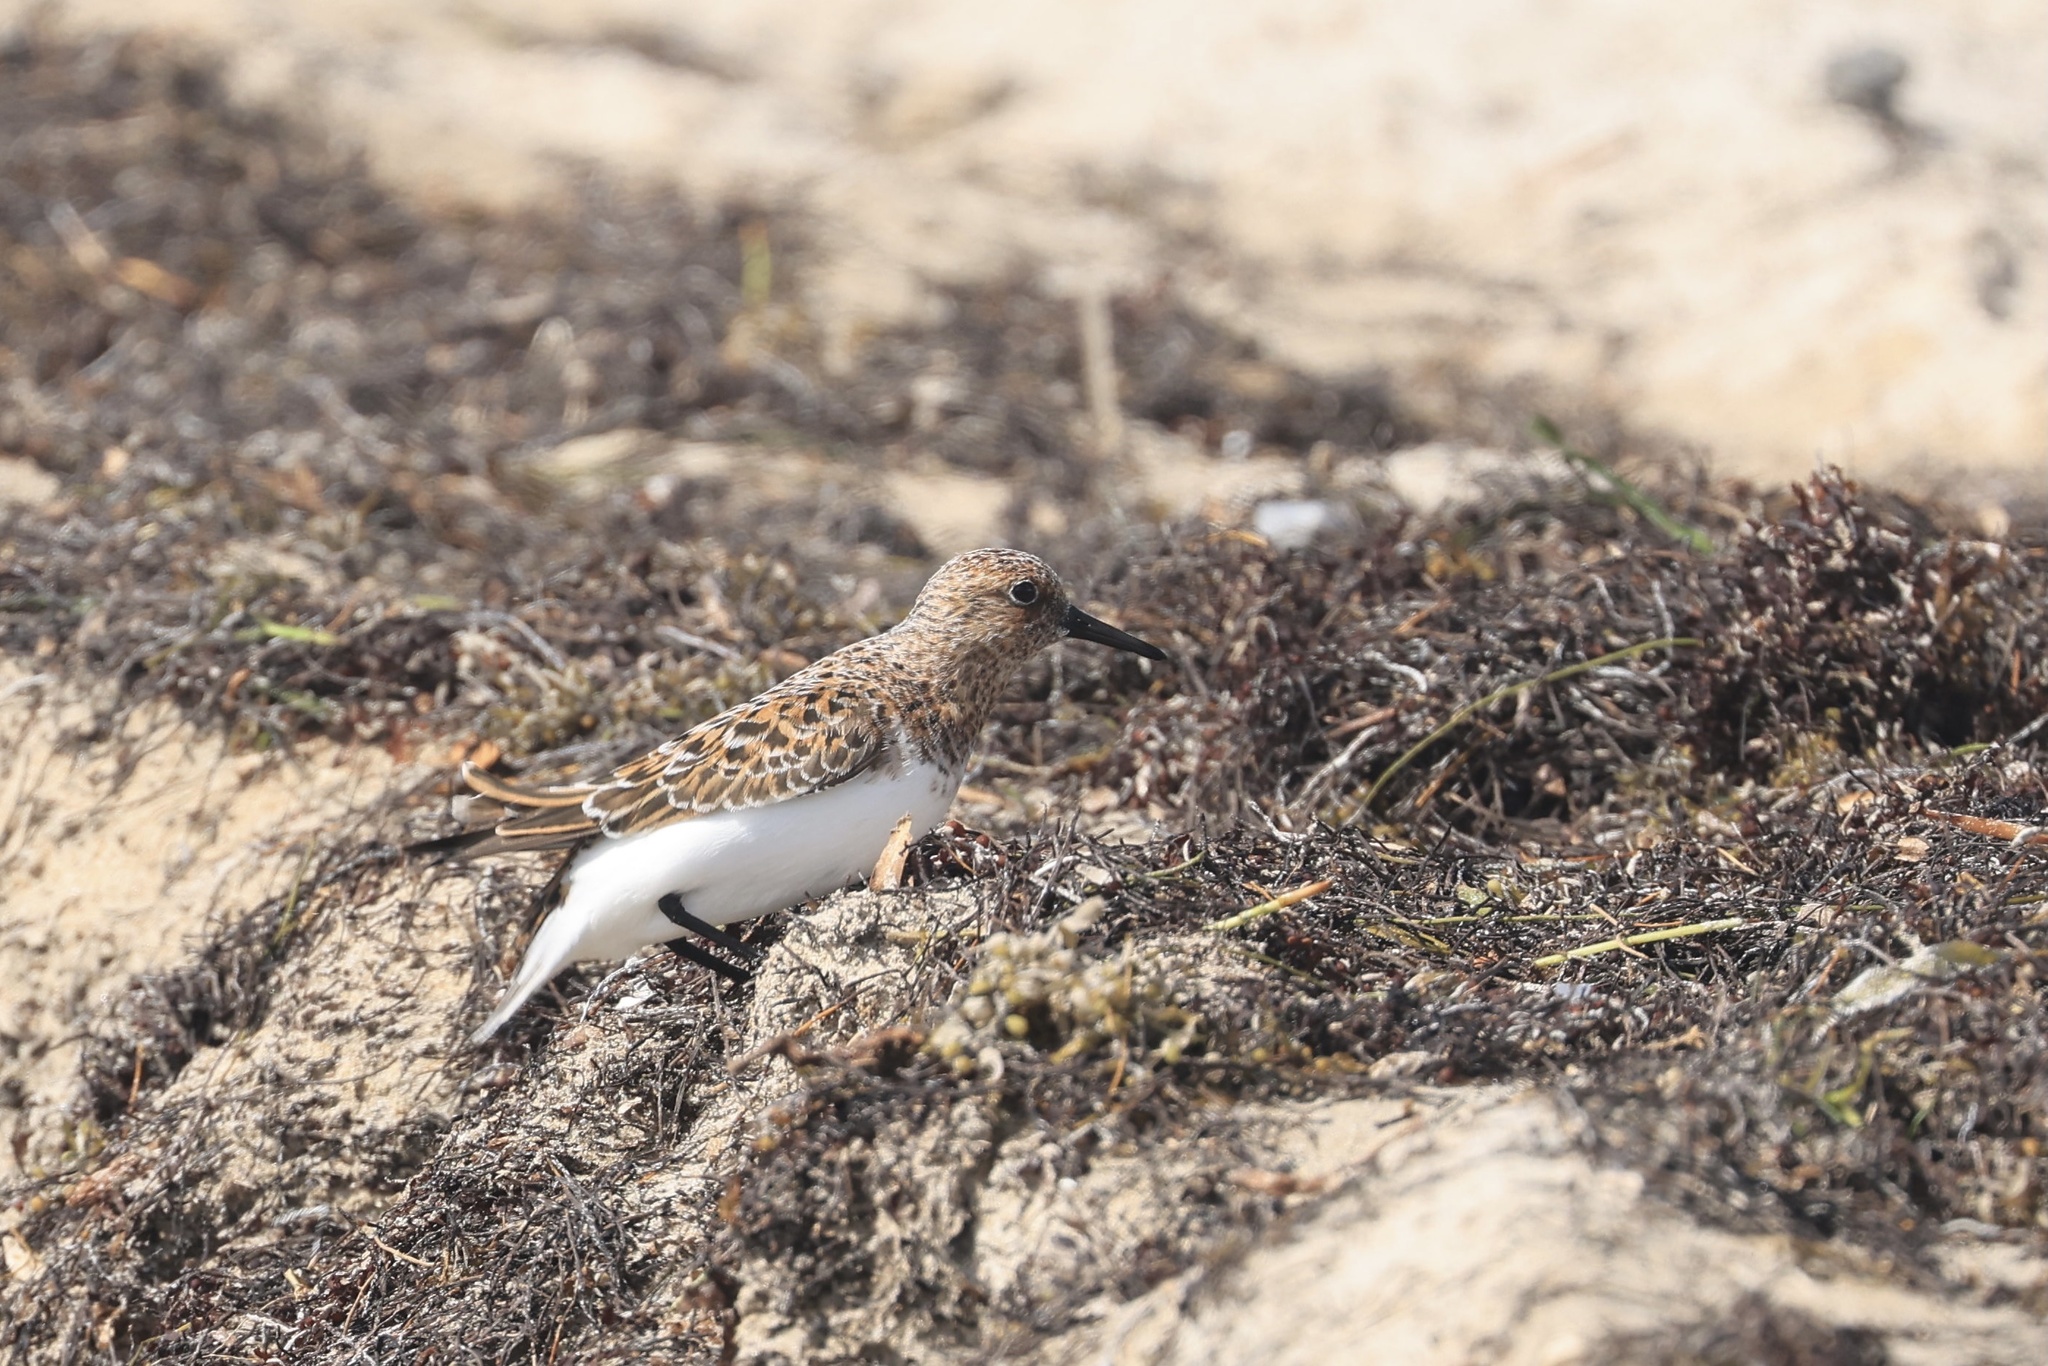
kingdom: Animalia
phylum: Chordata
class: Aves
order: Charadriiformes
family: Scolopacidae
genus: Calidris
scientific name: Calidris alba
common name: Sanderling
